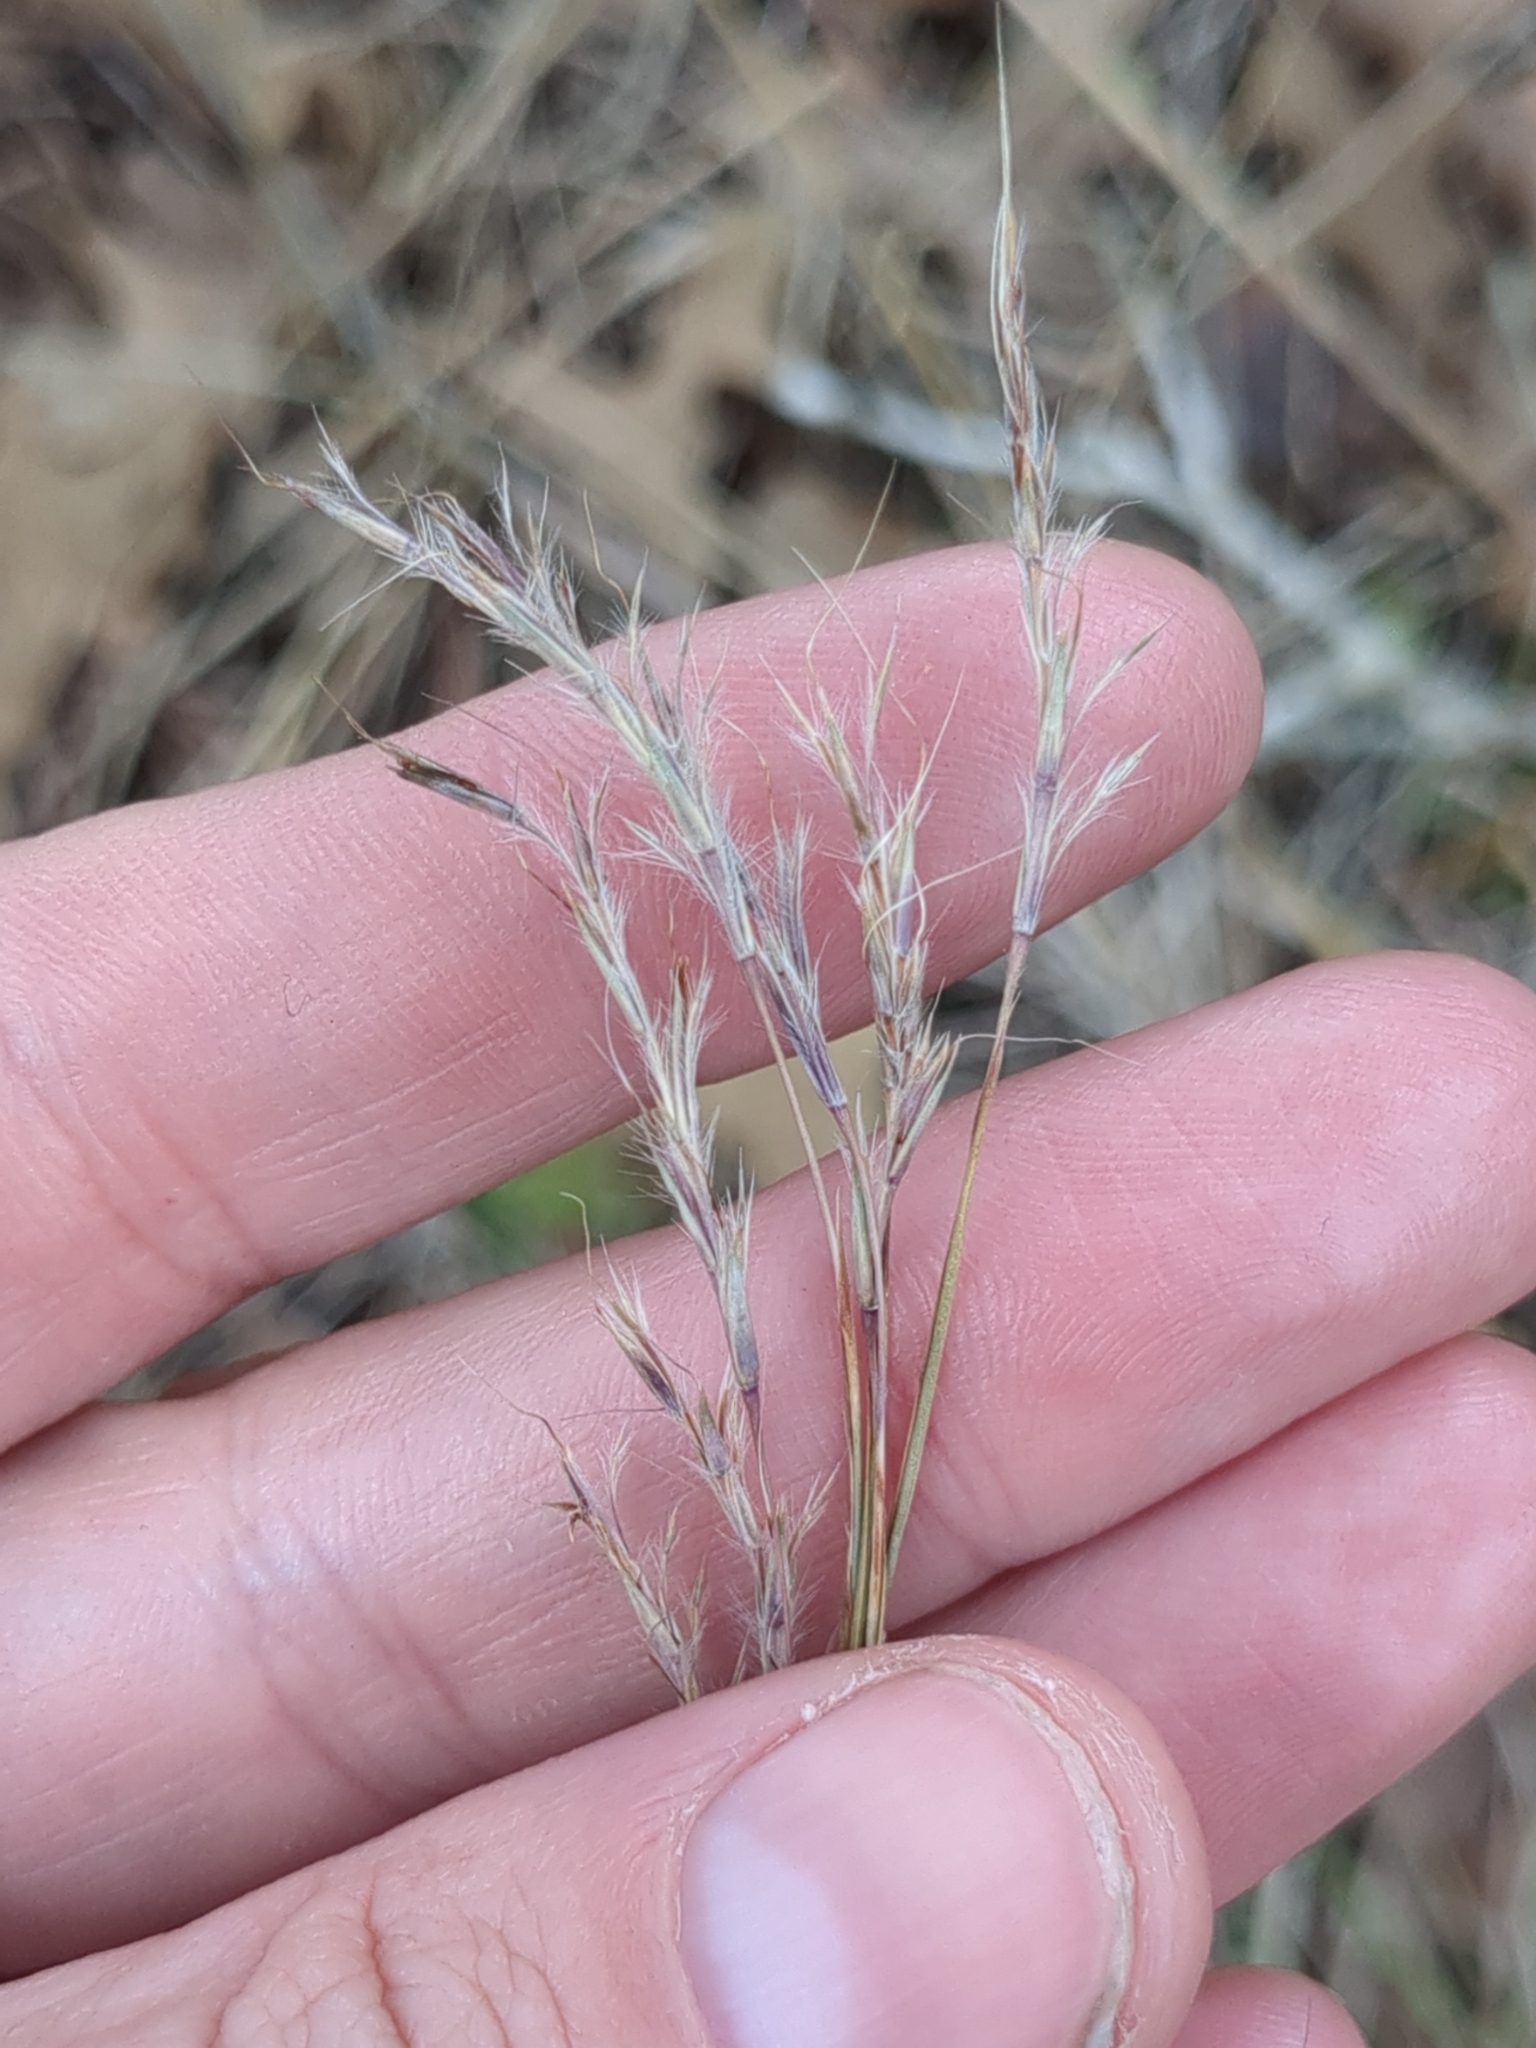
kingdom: Plantae
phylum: Tracheophyta
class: Liliopsida
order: Poales
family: Poaceae
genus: Schizachyrium
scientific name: Schizachyrium scoparium
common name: Little bluestem
